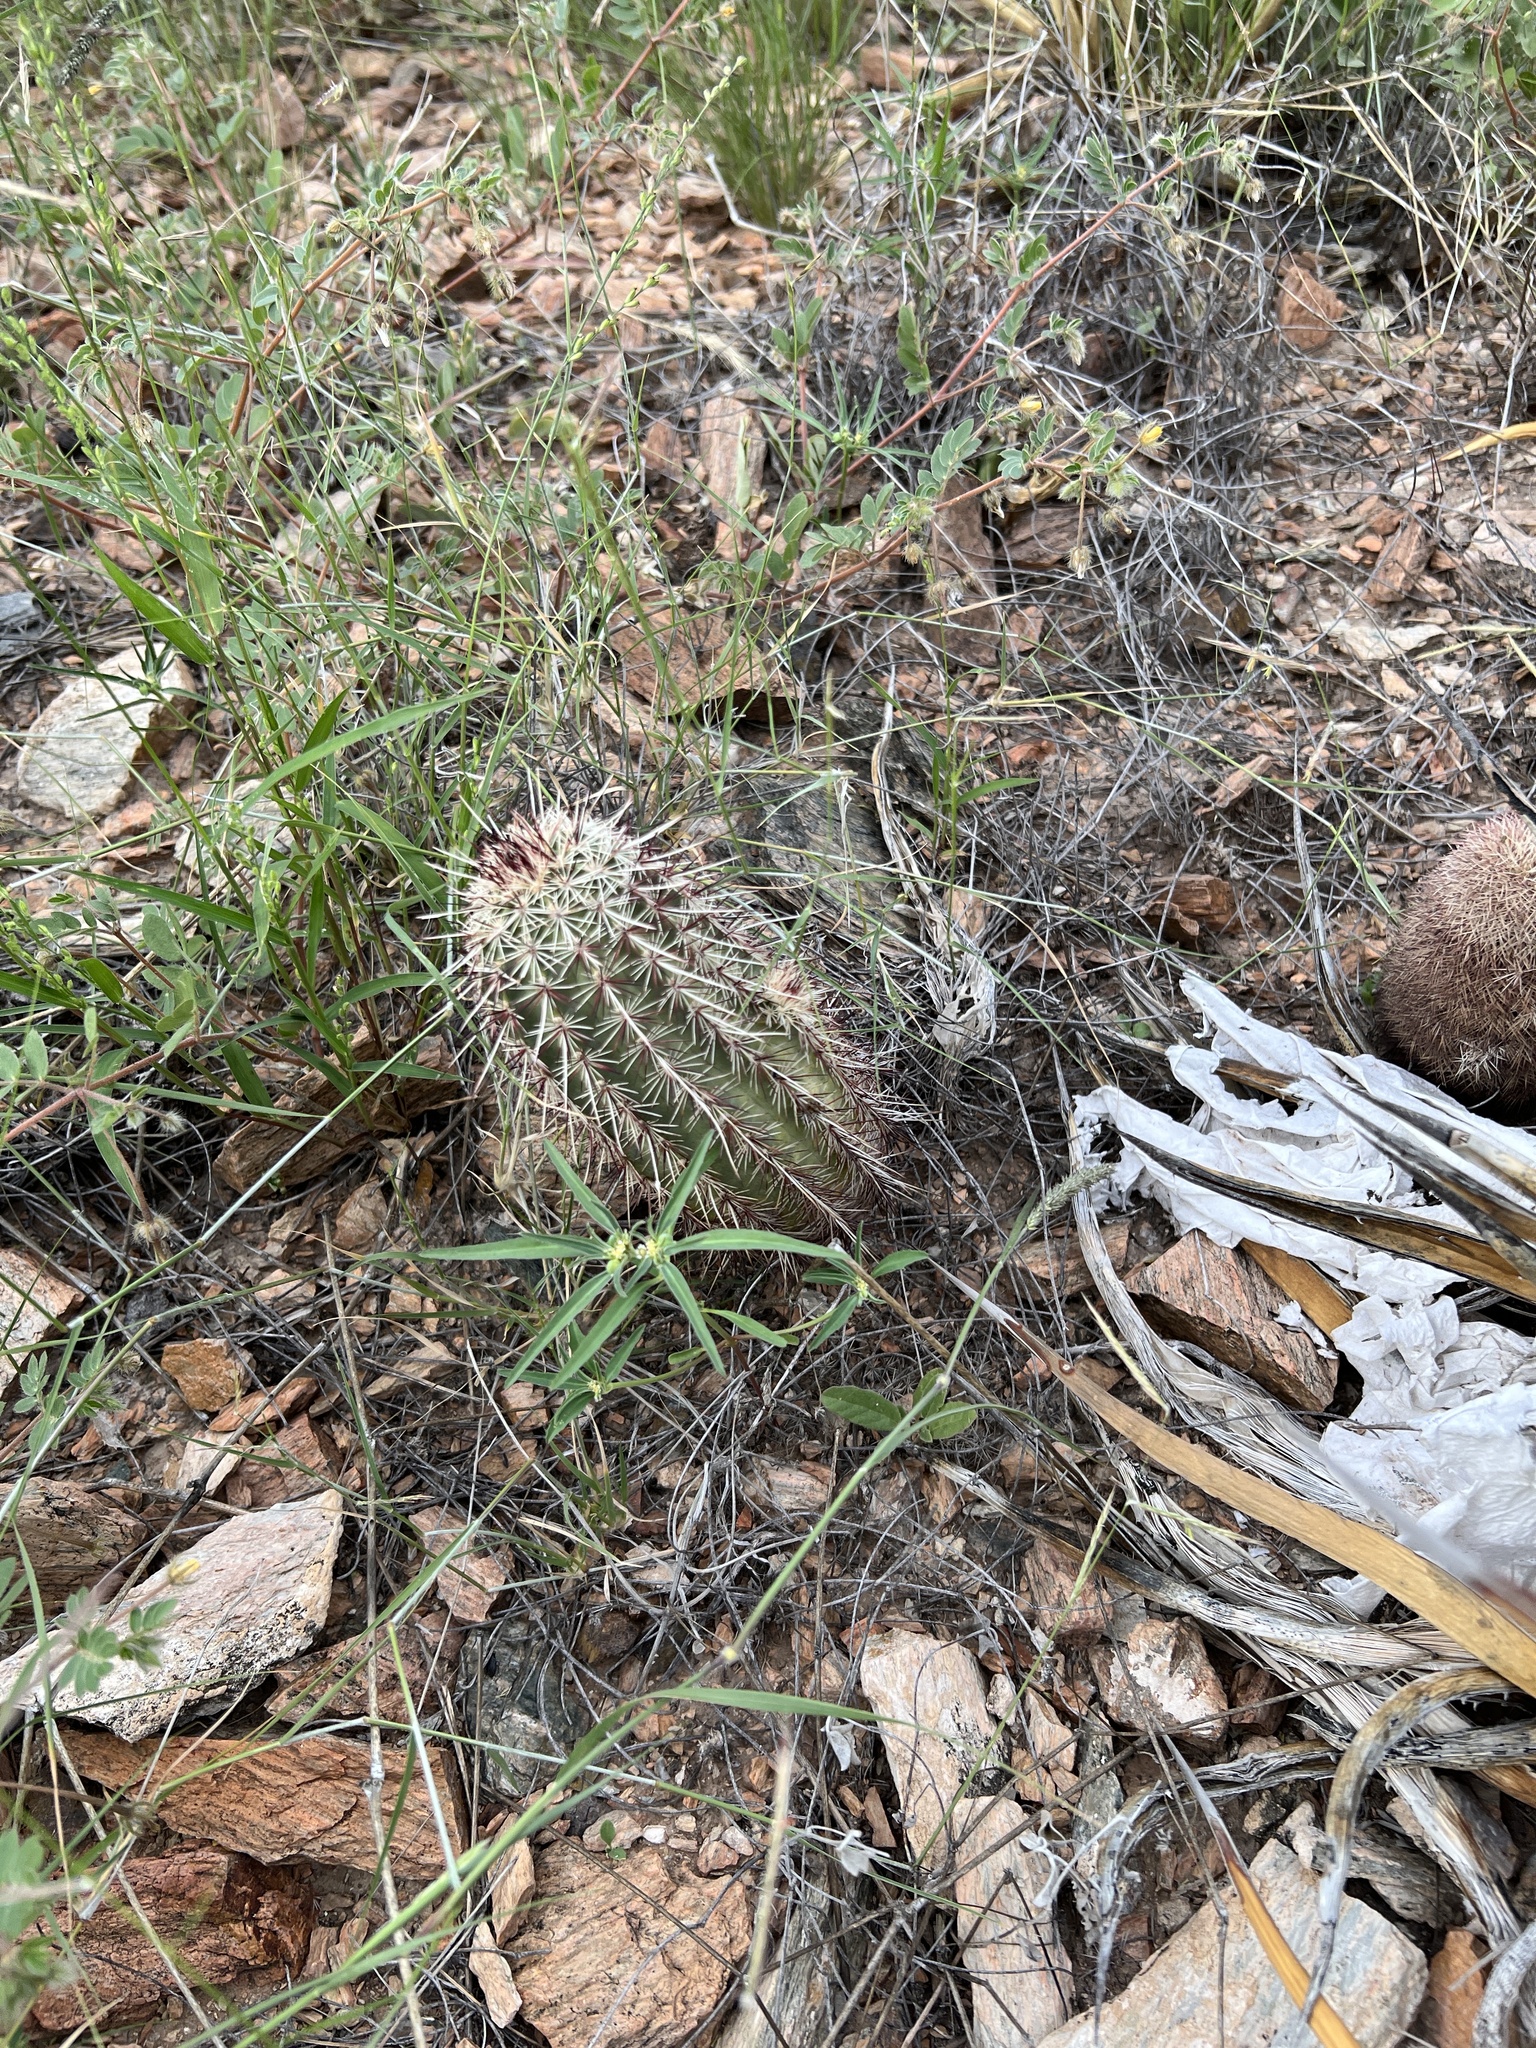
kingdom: Plantae
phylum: Tracheophyta
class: Magnoliopsida
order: Caryophyllales
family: Cactaceae
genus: Echinocereus
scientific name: Echinocereus viridiflorus
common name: Nylon hedgehog cactus
